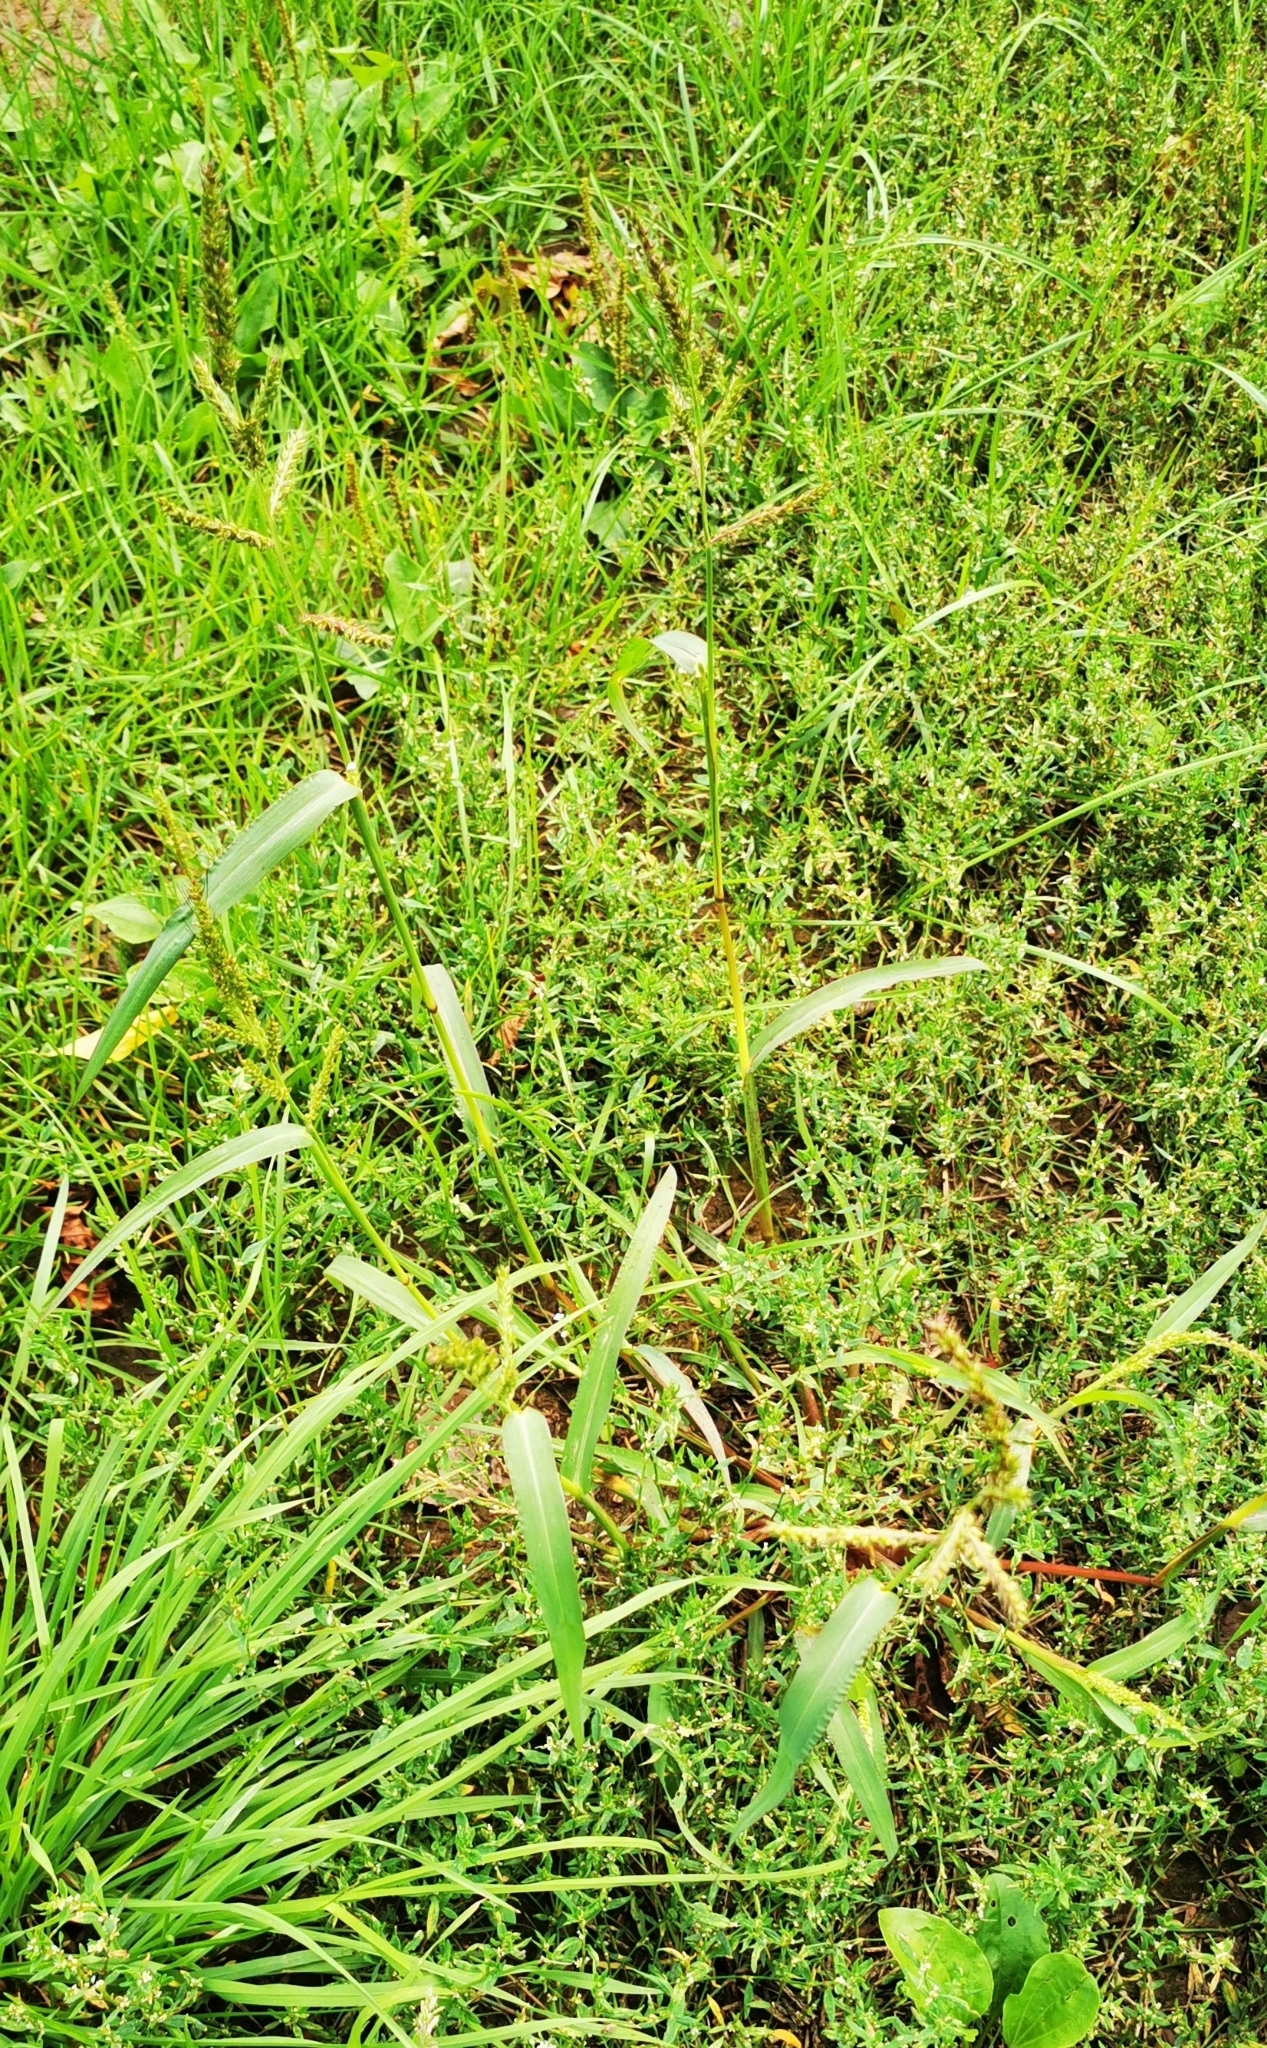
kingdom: Plantae
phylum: Tracheophyta
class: Liliopsida
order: Poales
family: Poaceae
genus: Echinochloa
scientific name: Echinochloa crus-galli
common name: Cockspur
